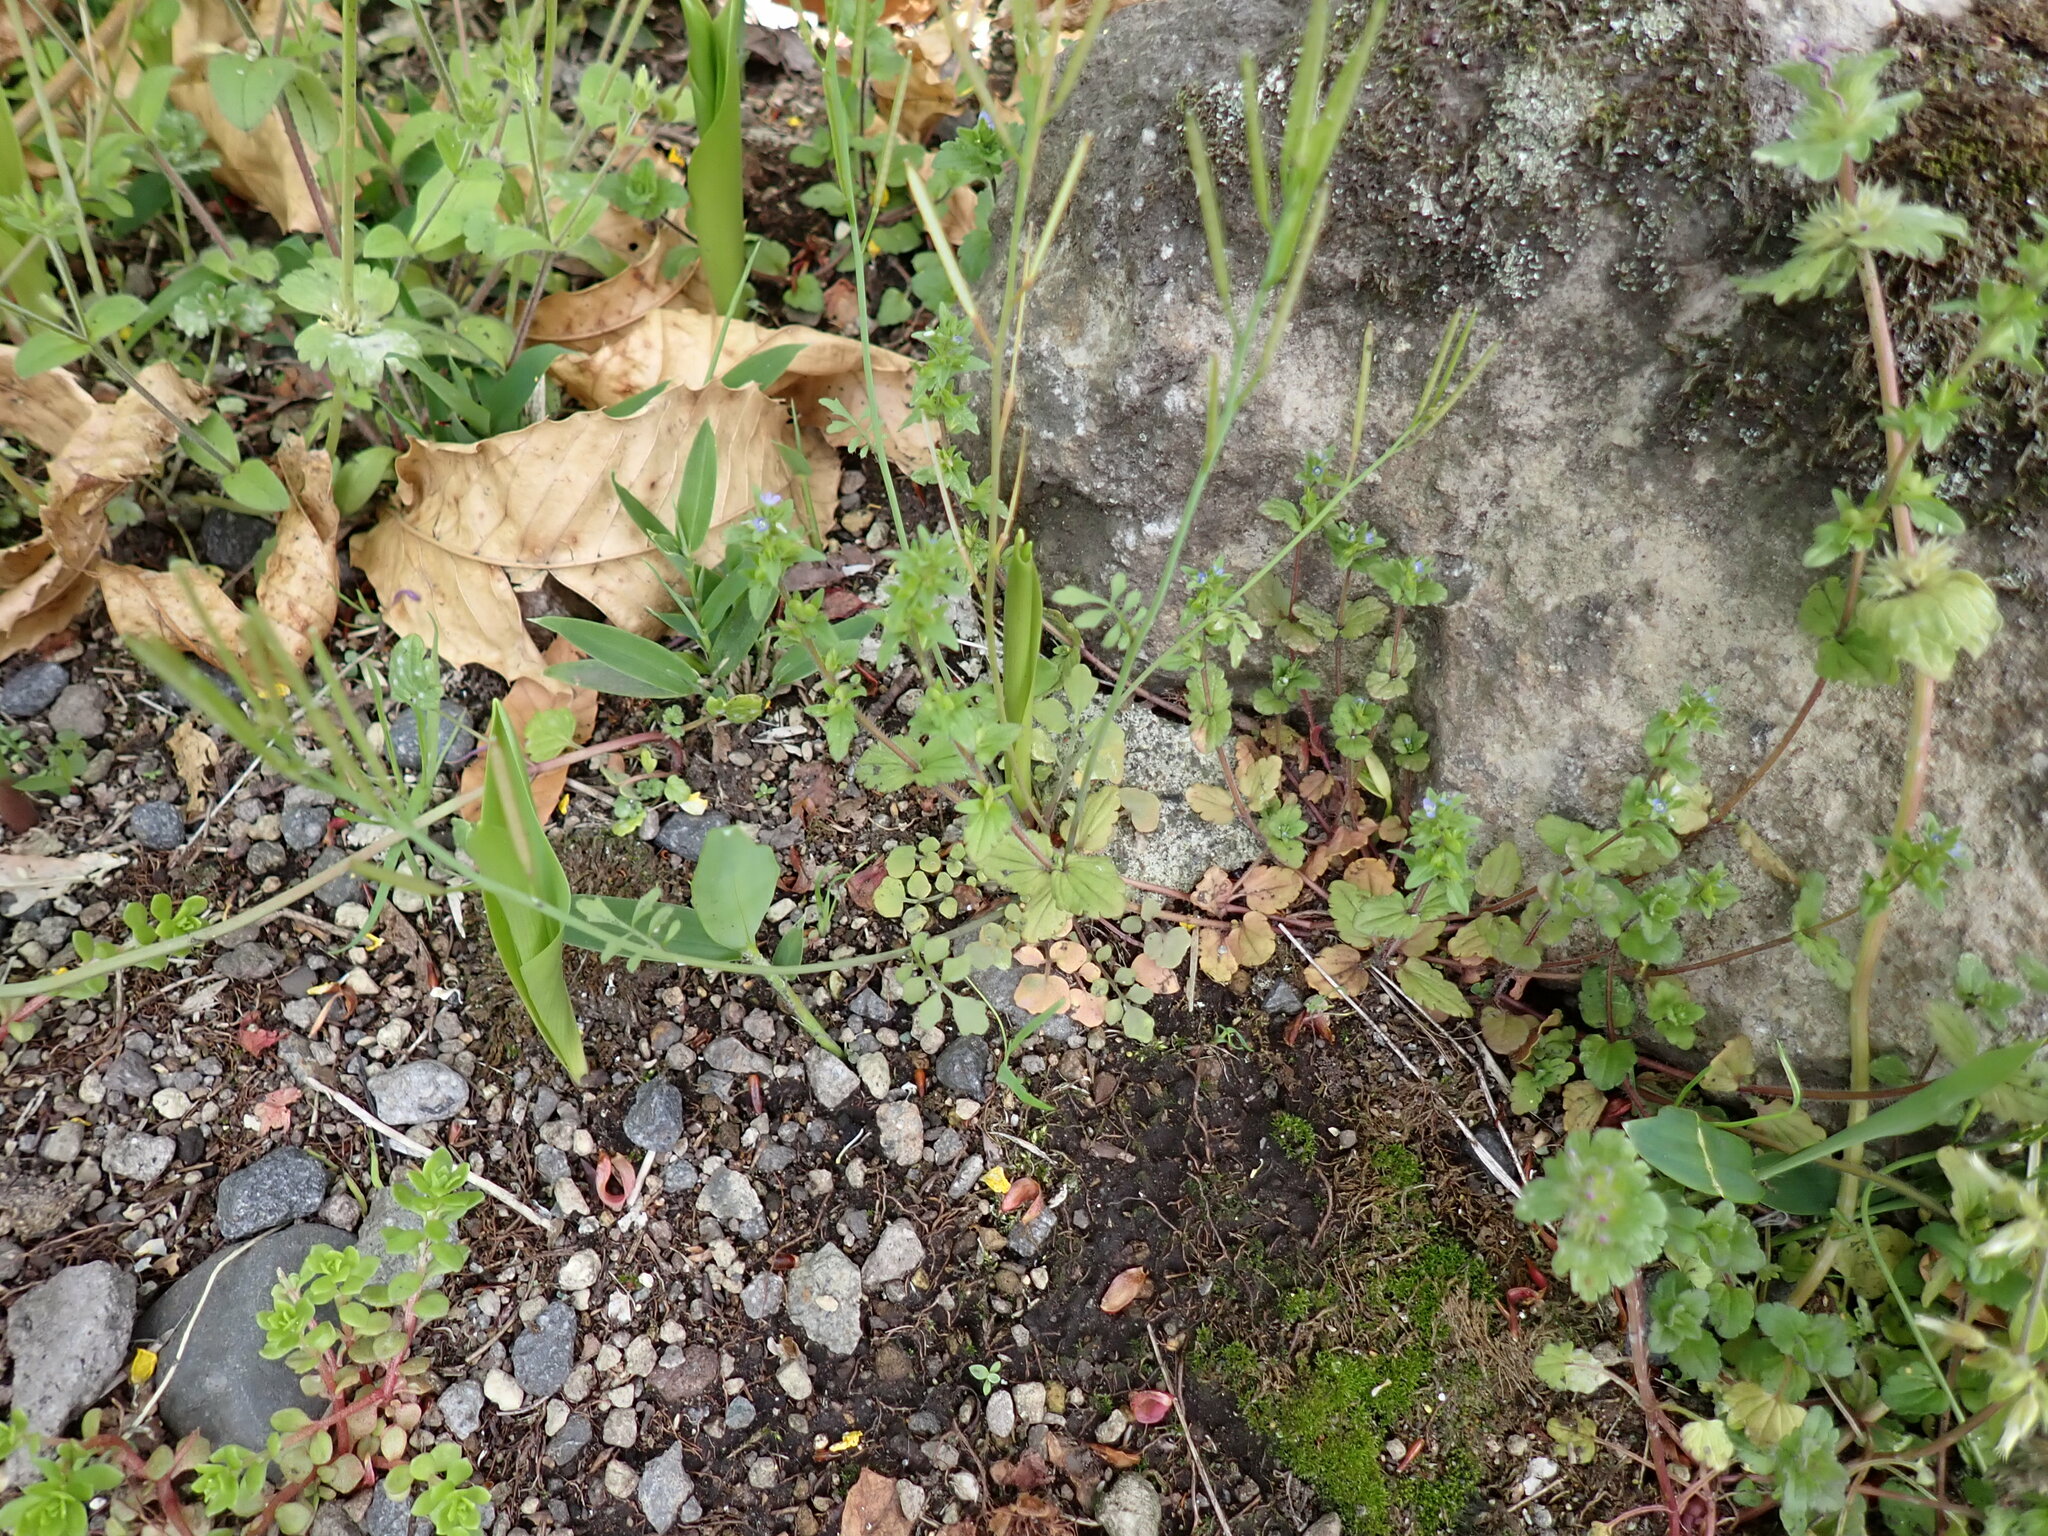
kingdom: Plantae
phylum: Tracheophyta
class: Magnoliopsida
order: Lamiales
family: Plantaginaceae
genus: Veronica
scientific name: Veronica arvensis
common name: Corn speedwell
